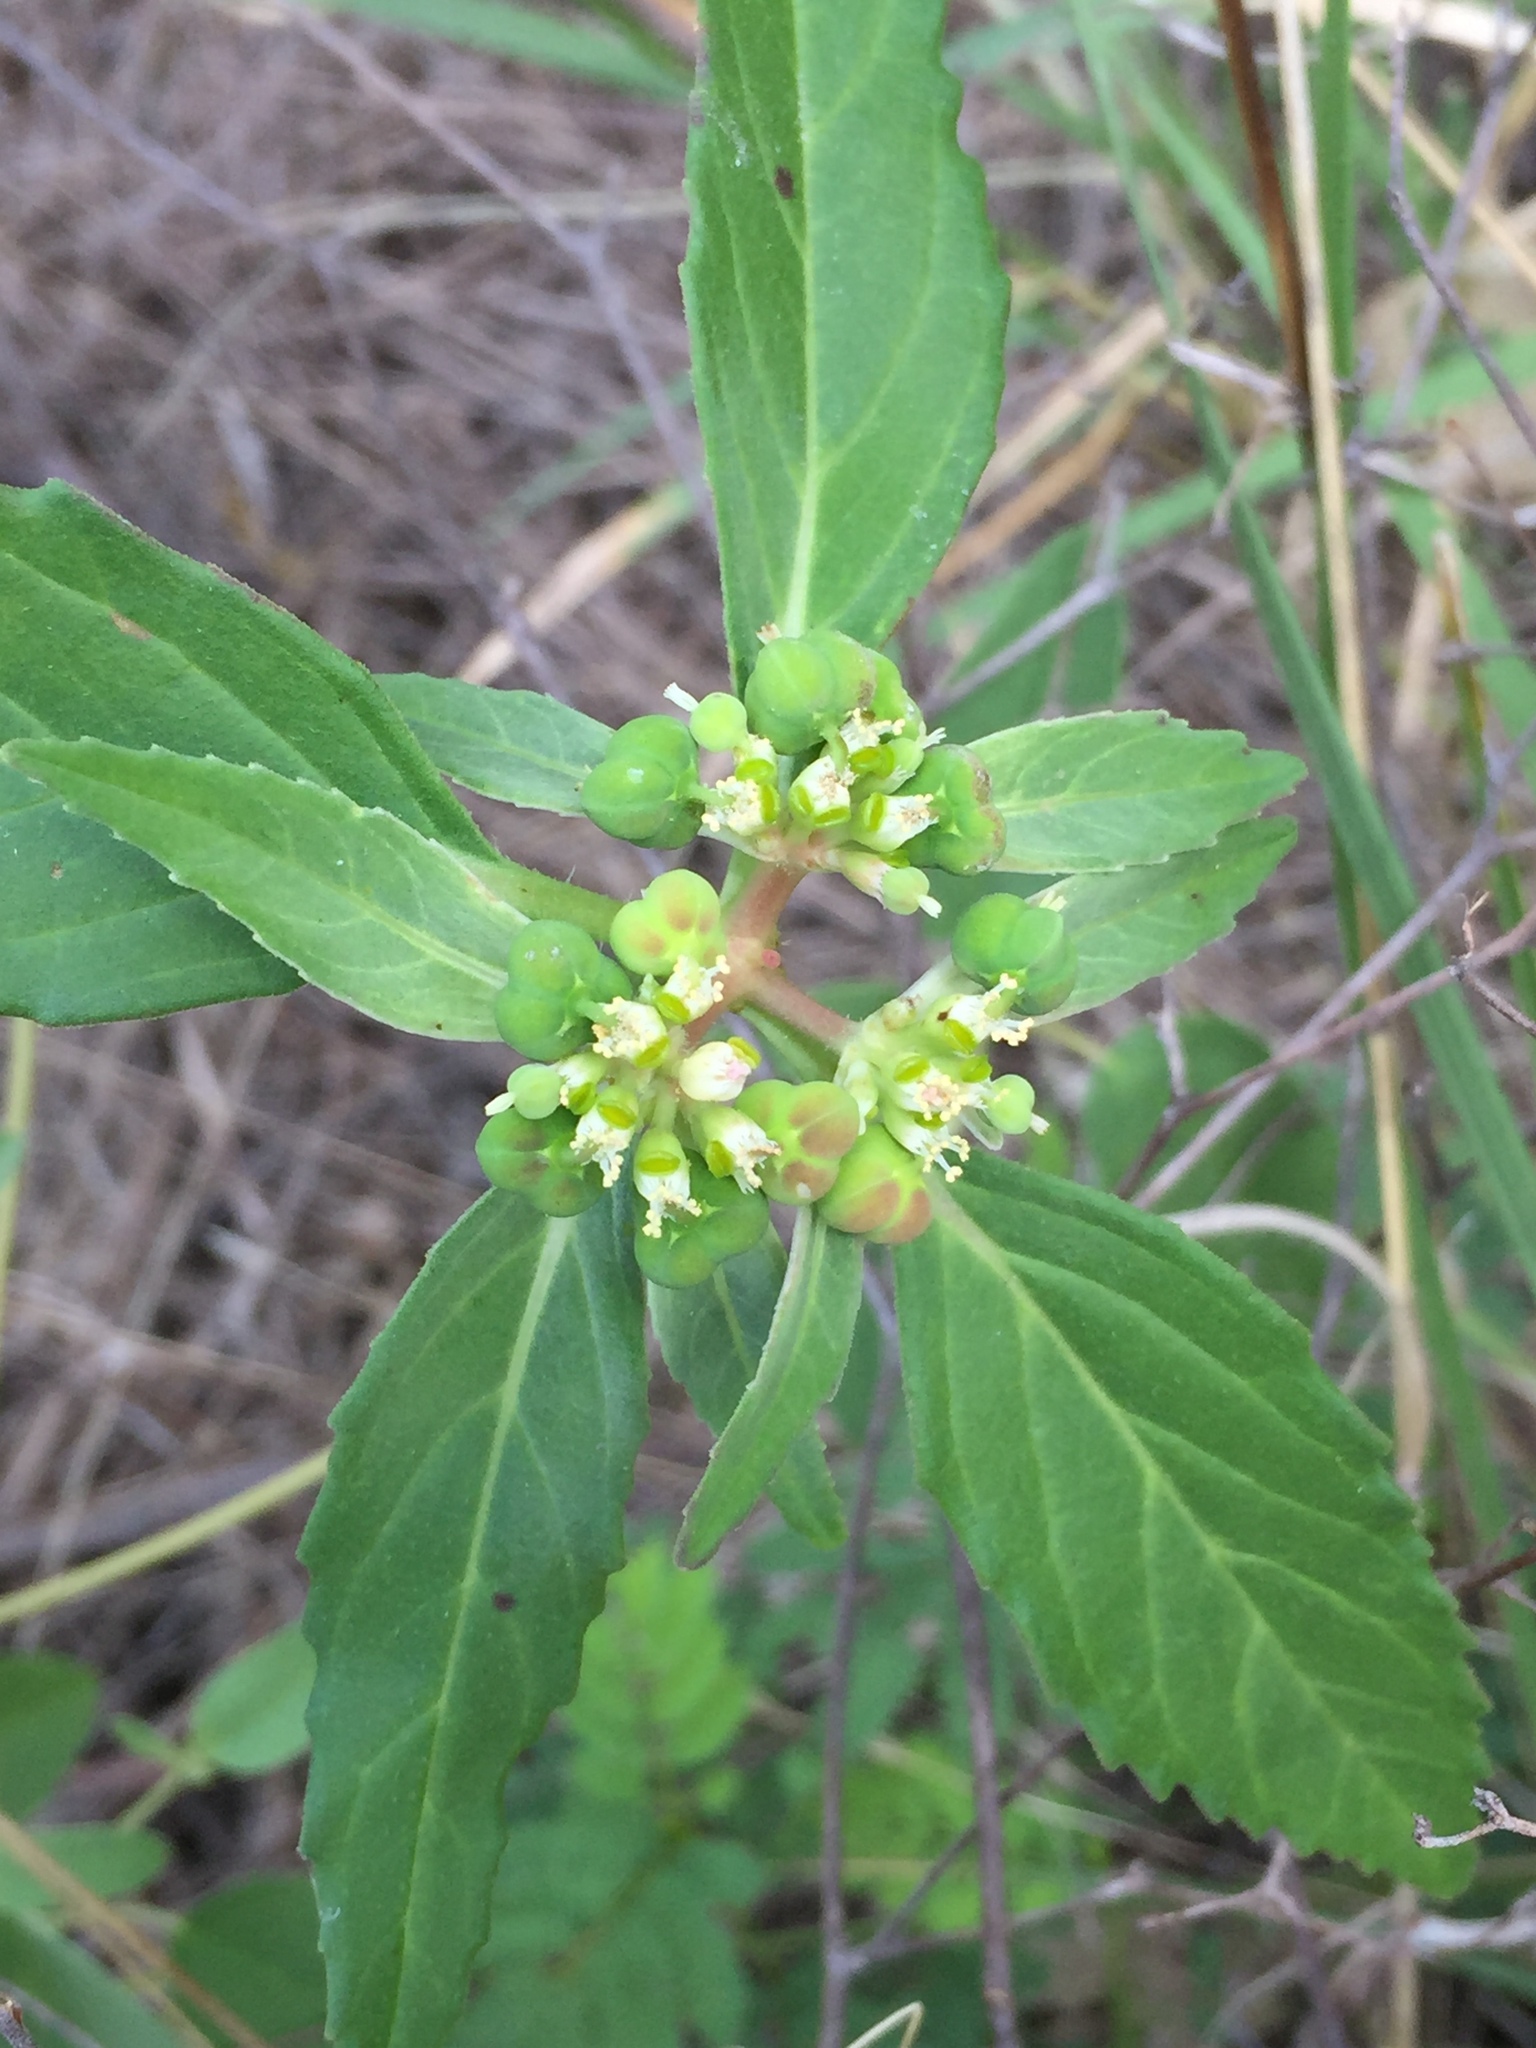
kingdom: Plantae
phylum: Tracheophyta
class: Magnoliopsida
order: Malpighiales
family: Euphorbiaceae
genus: Euphorbia
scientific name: Euphorbia dentata
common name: Dentate spurge
